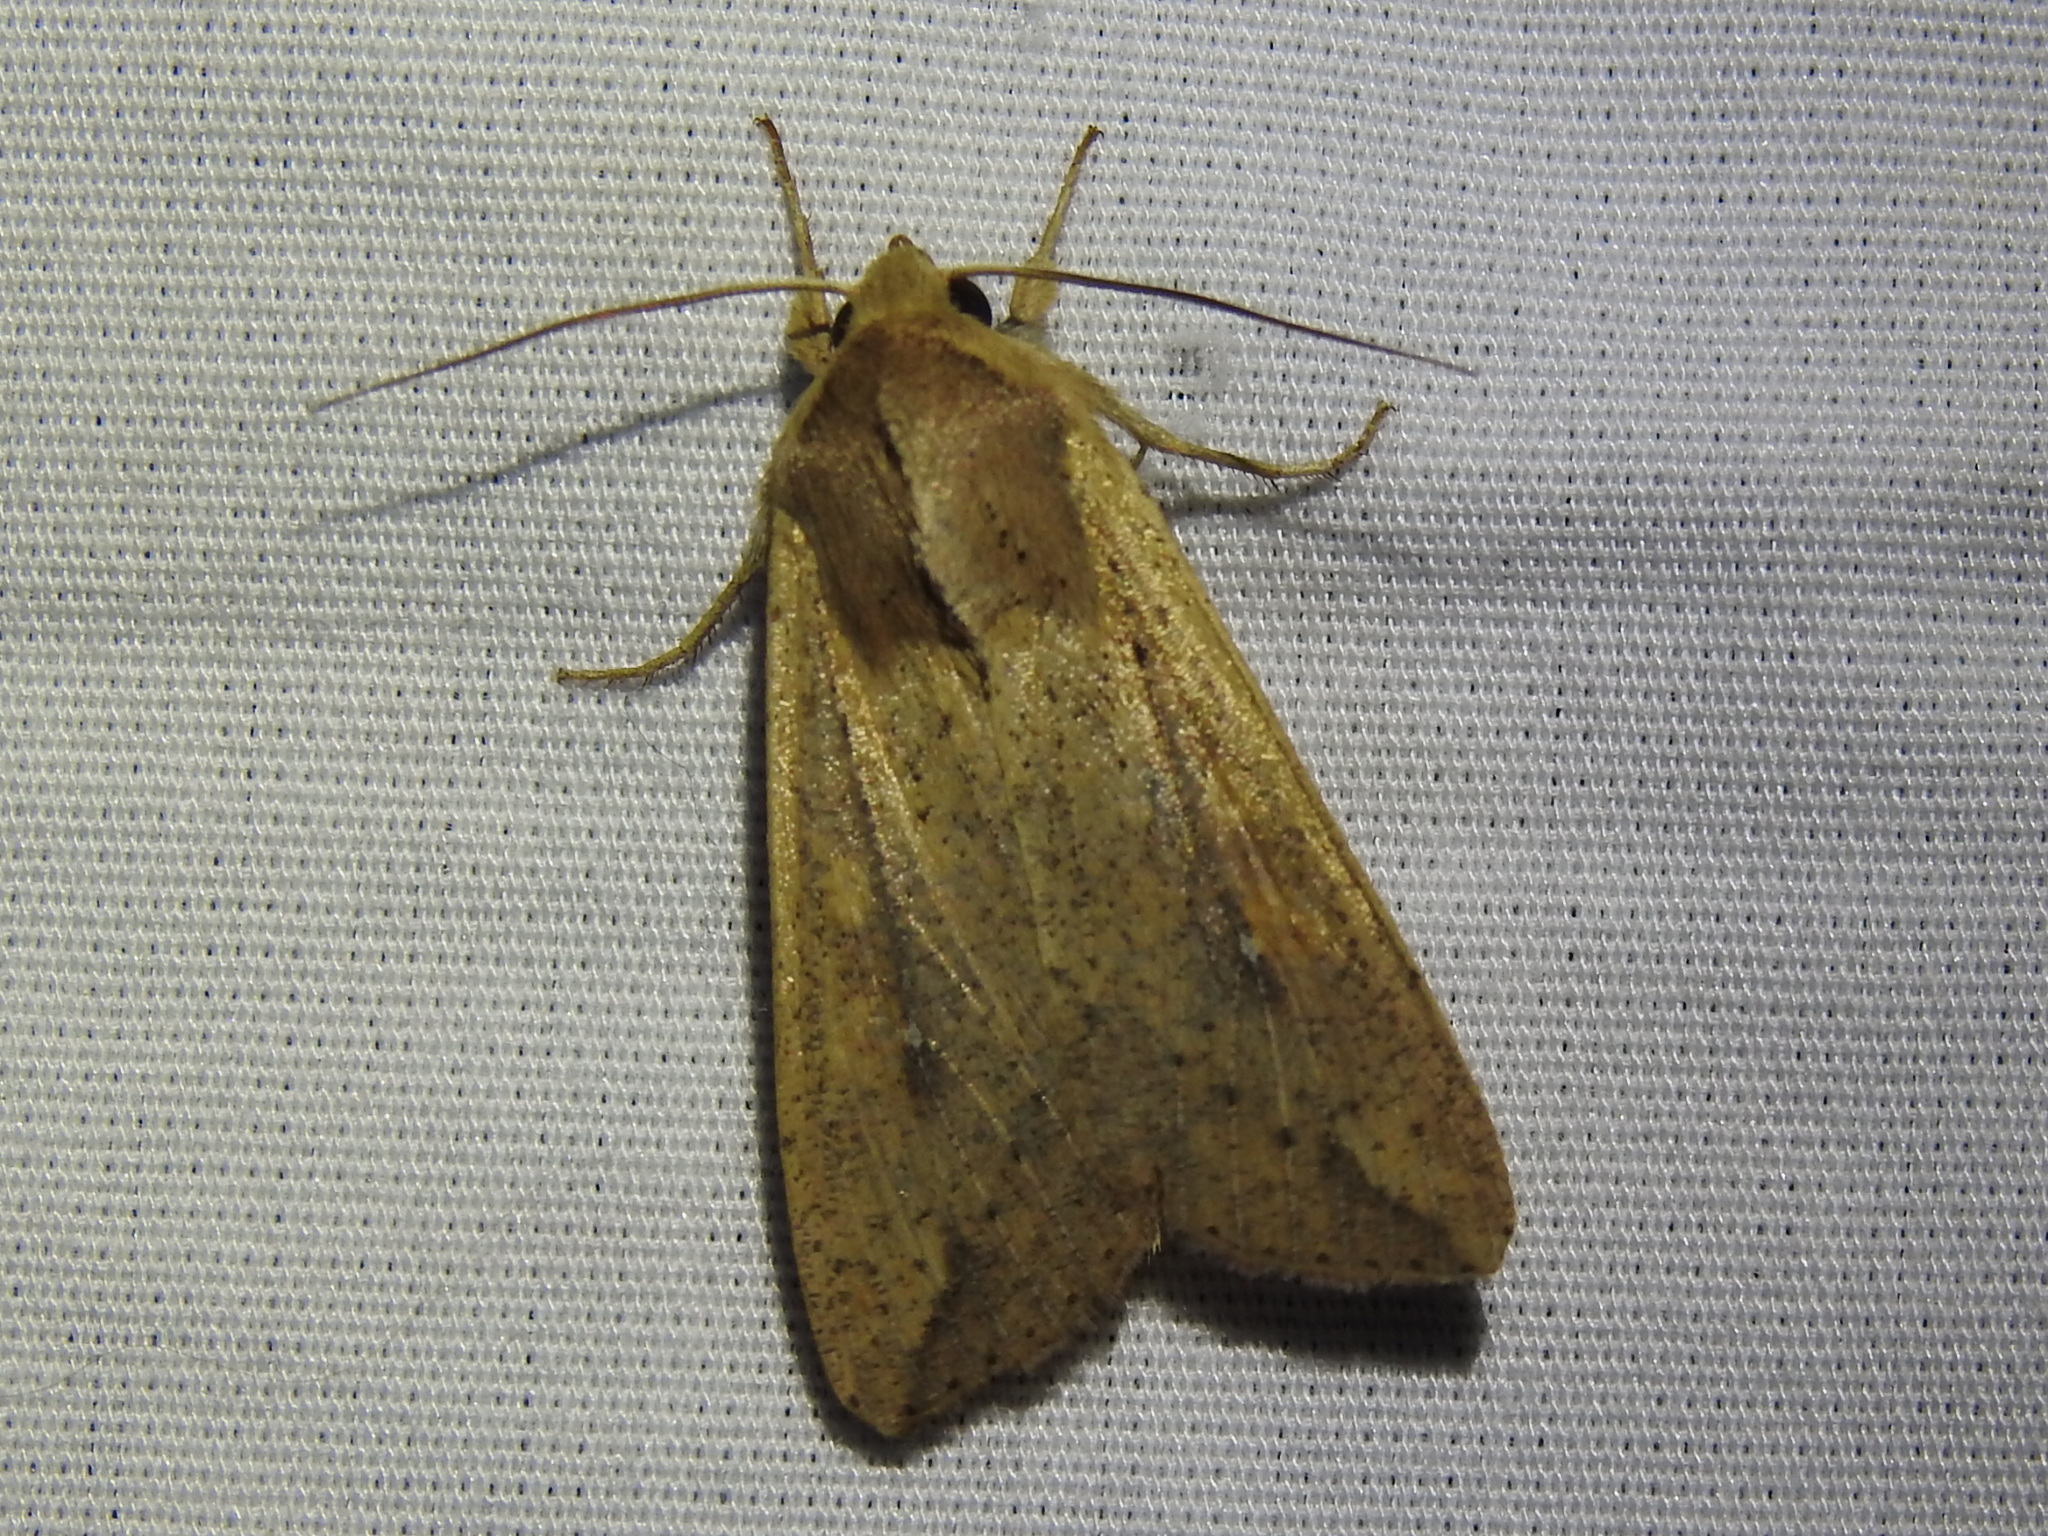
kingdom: Animalia
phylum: Arthropoda
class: Insecta
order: Lepidoptera
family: Noctuidae
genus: Mythimna
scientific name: Mythimna unipuncta
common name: White-speck
